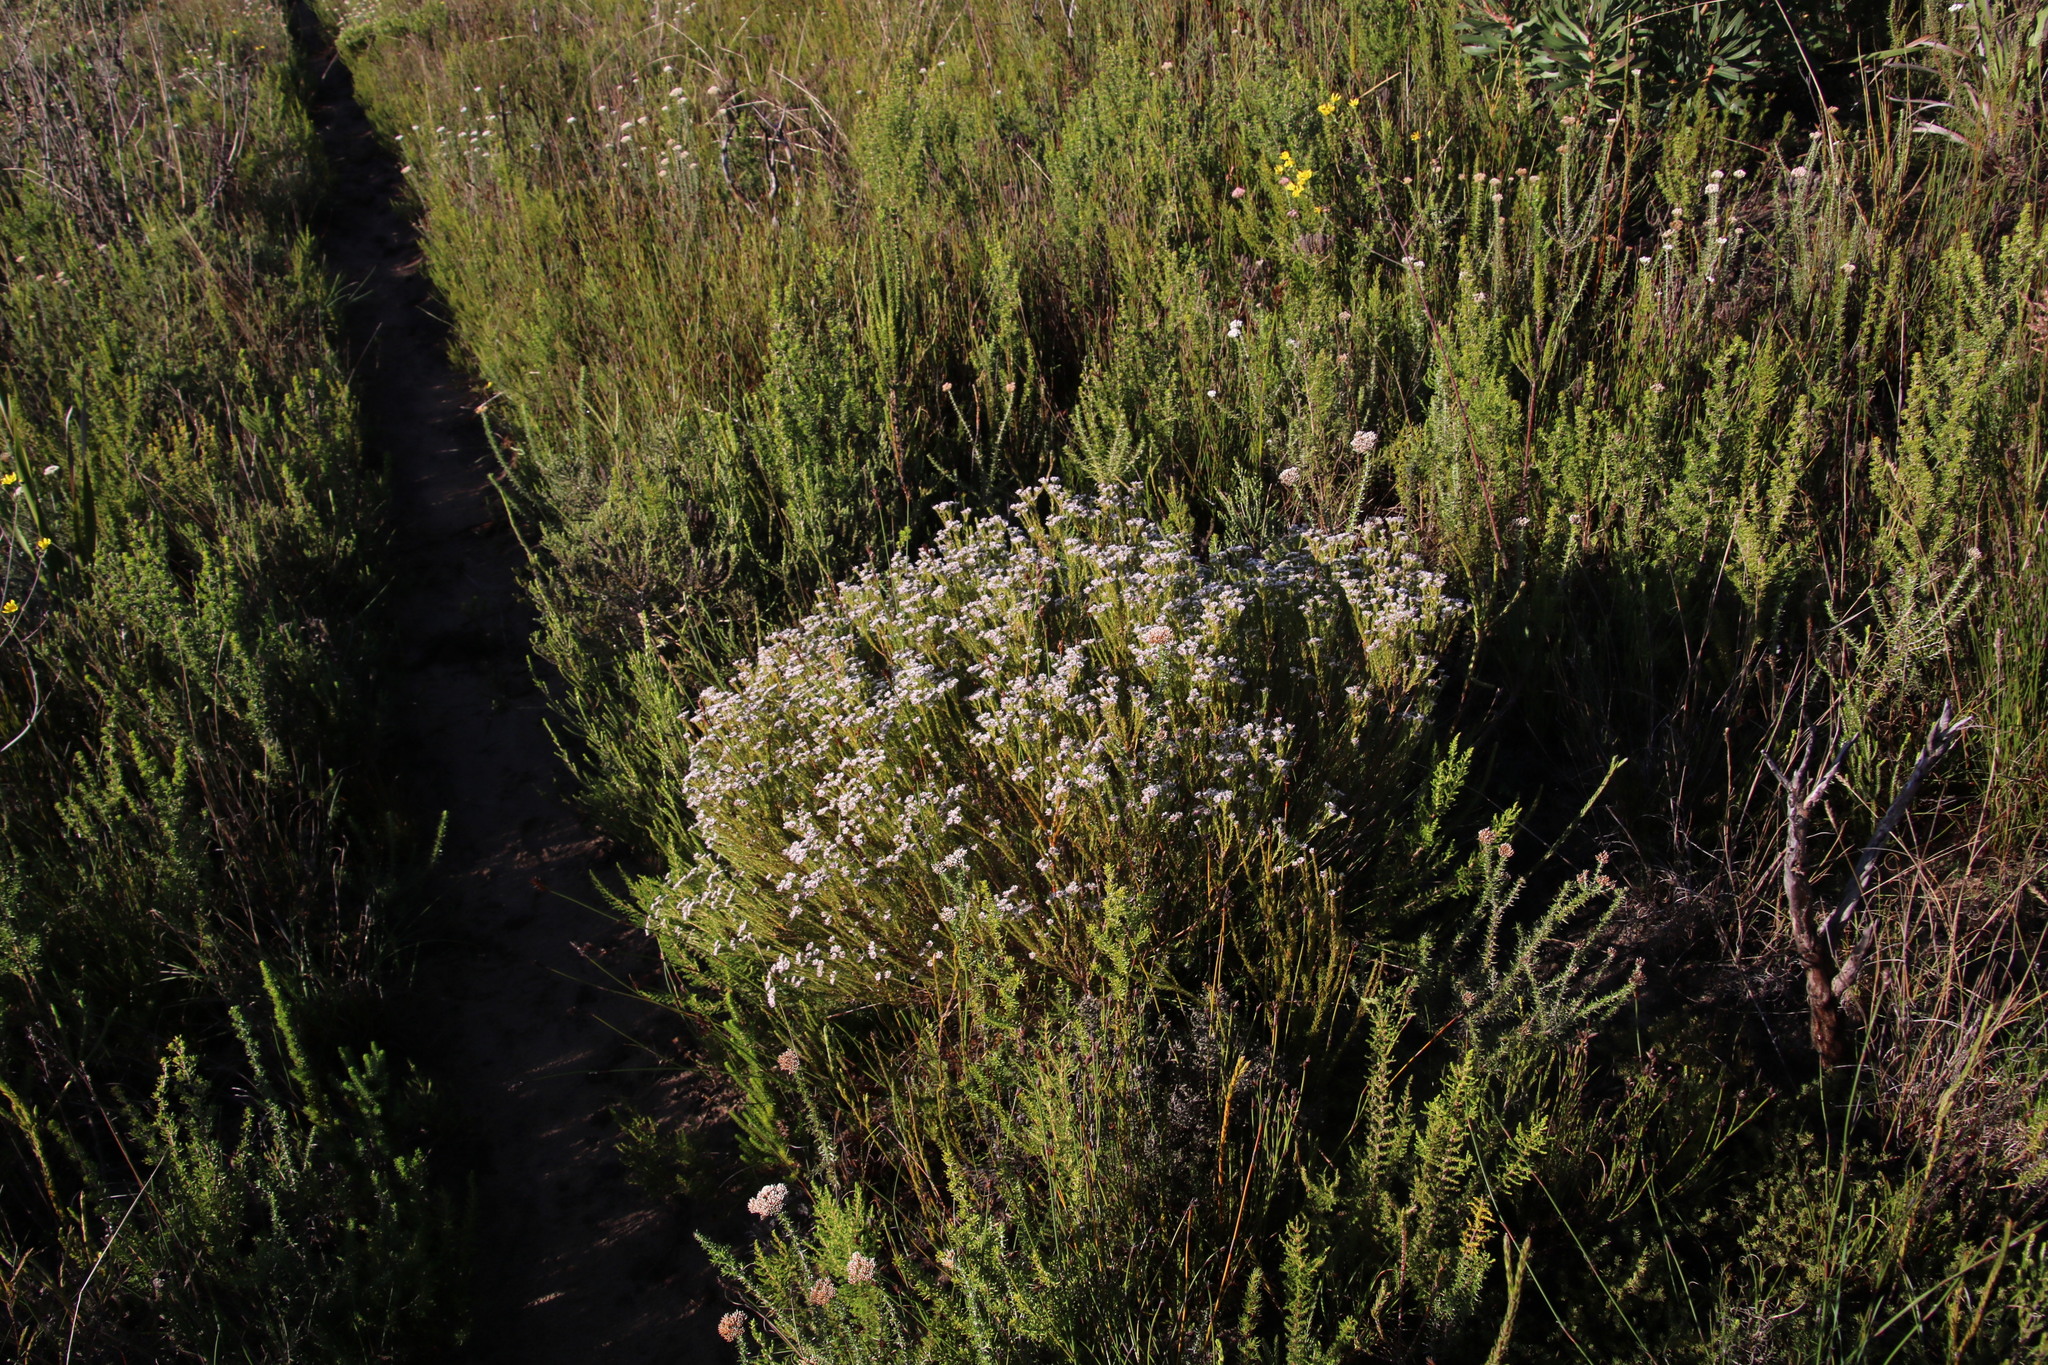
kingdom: Plantae
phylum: Tracheophyta
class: Magnoliopsida
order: Bruniales
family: Bruniaceae
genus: Staavia
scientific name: Staavia radiata
